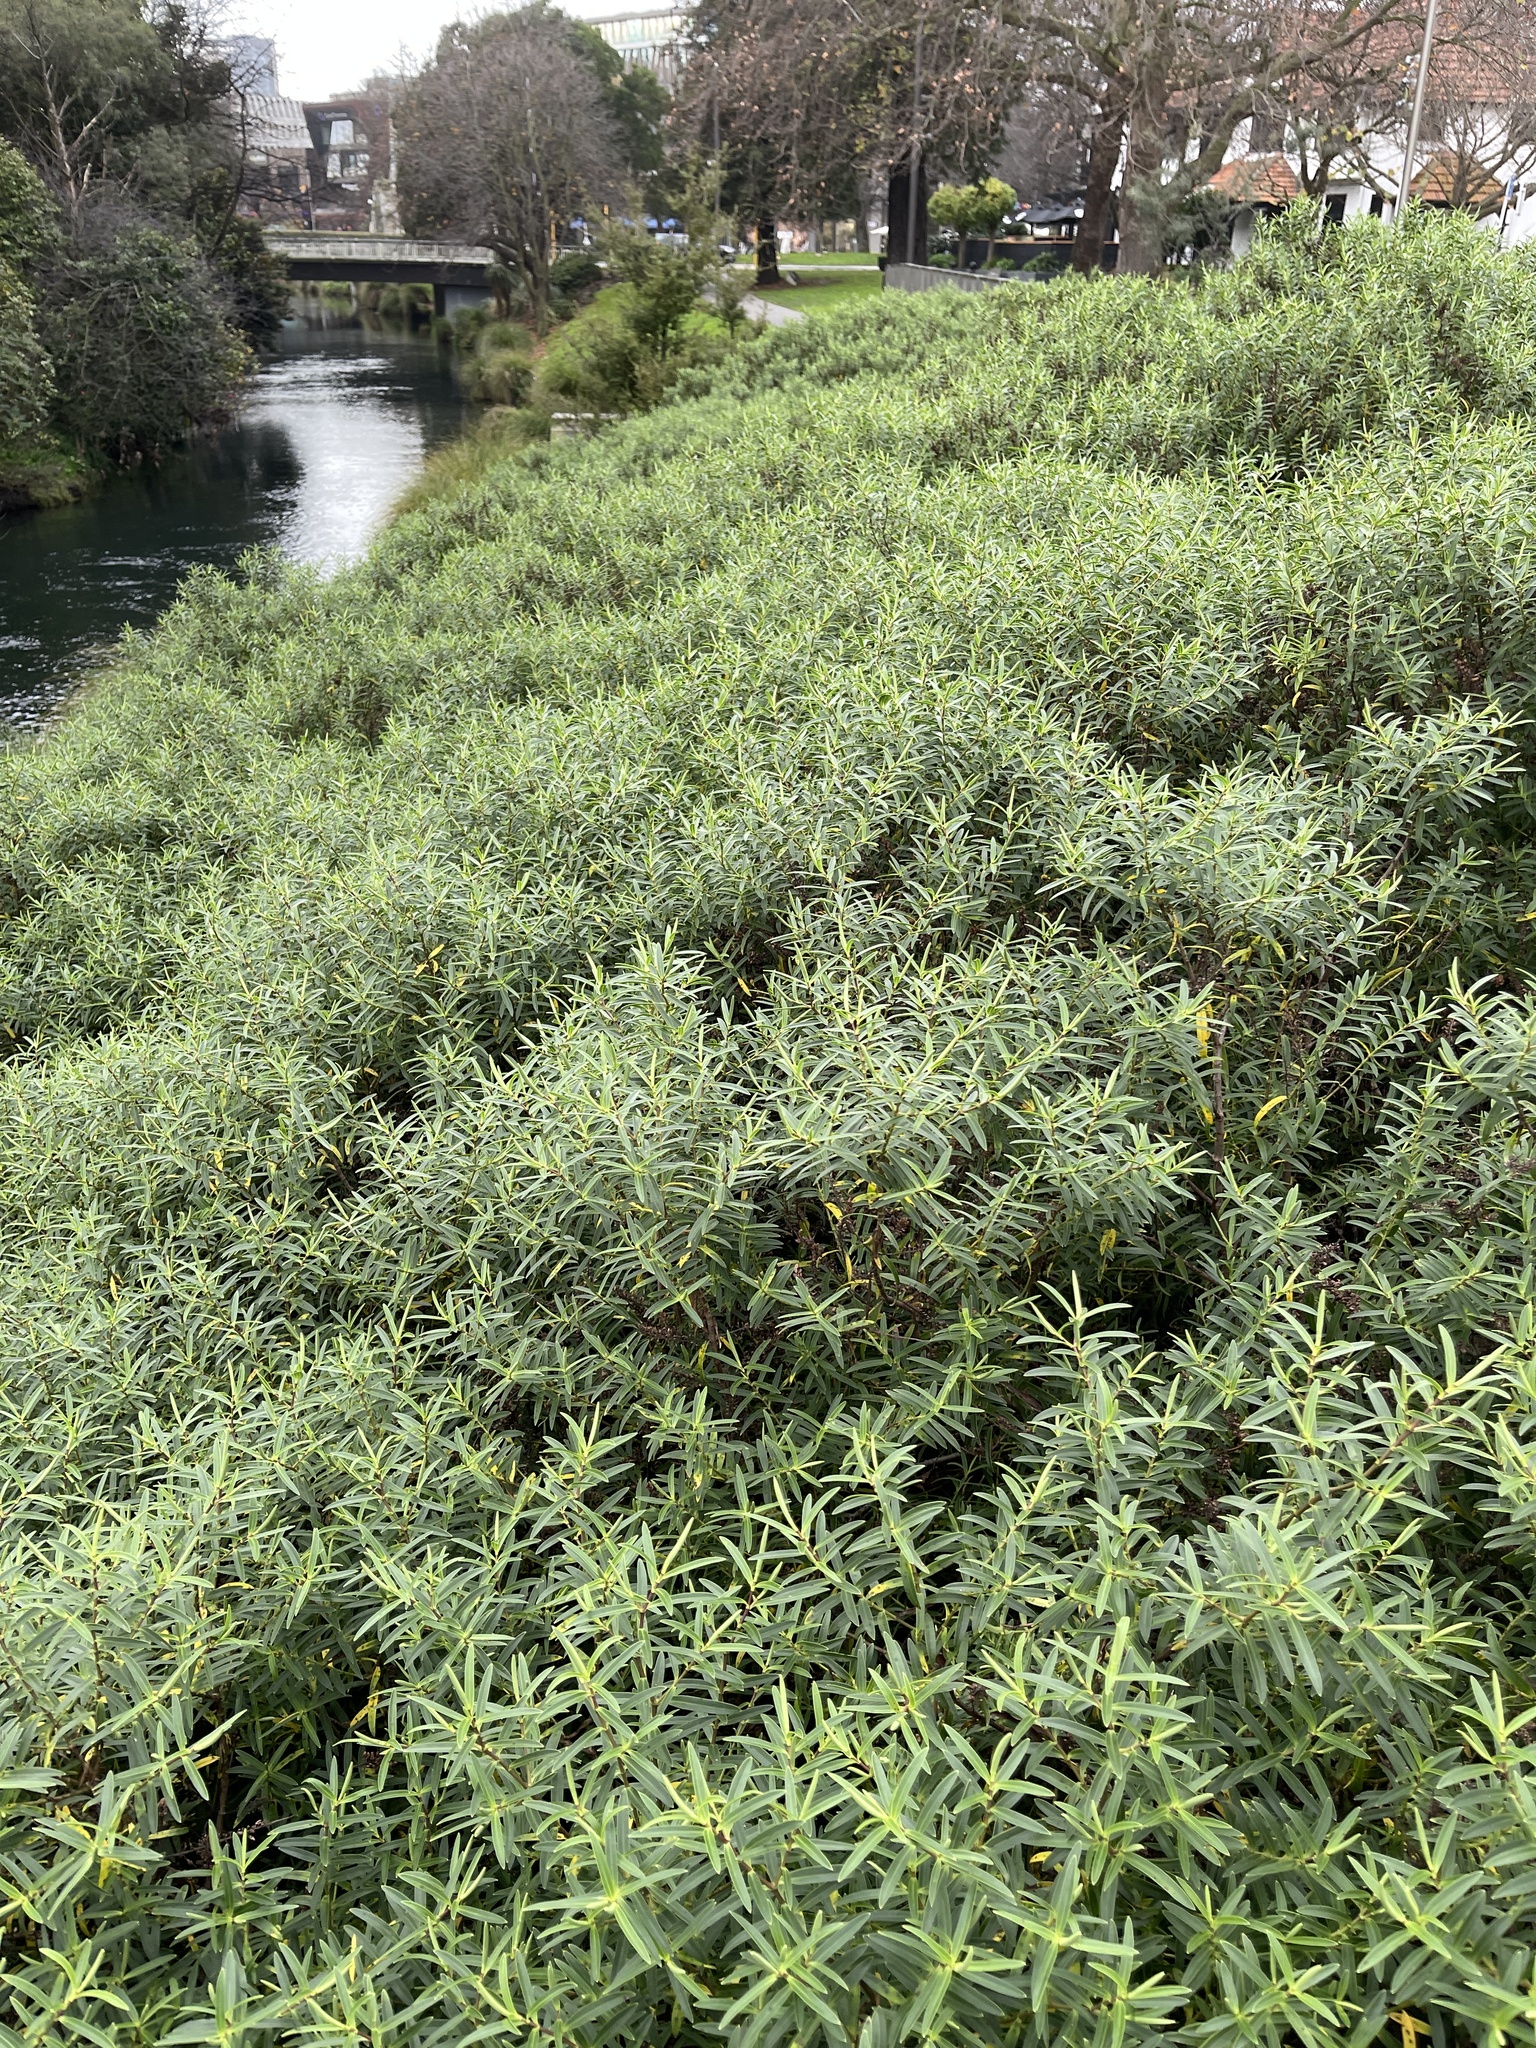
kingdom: Plantae
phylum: Tracheophyta
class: Magnoliopsida
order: Lamiales
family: Plantaginaceae
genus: Veronica
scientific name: Veronica strictissima
